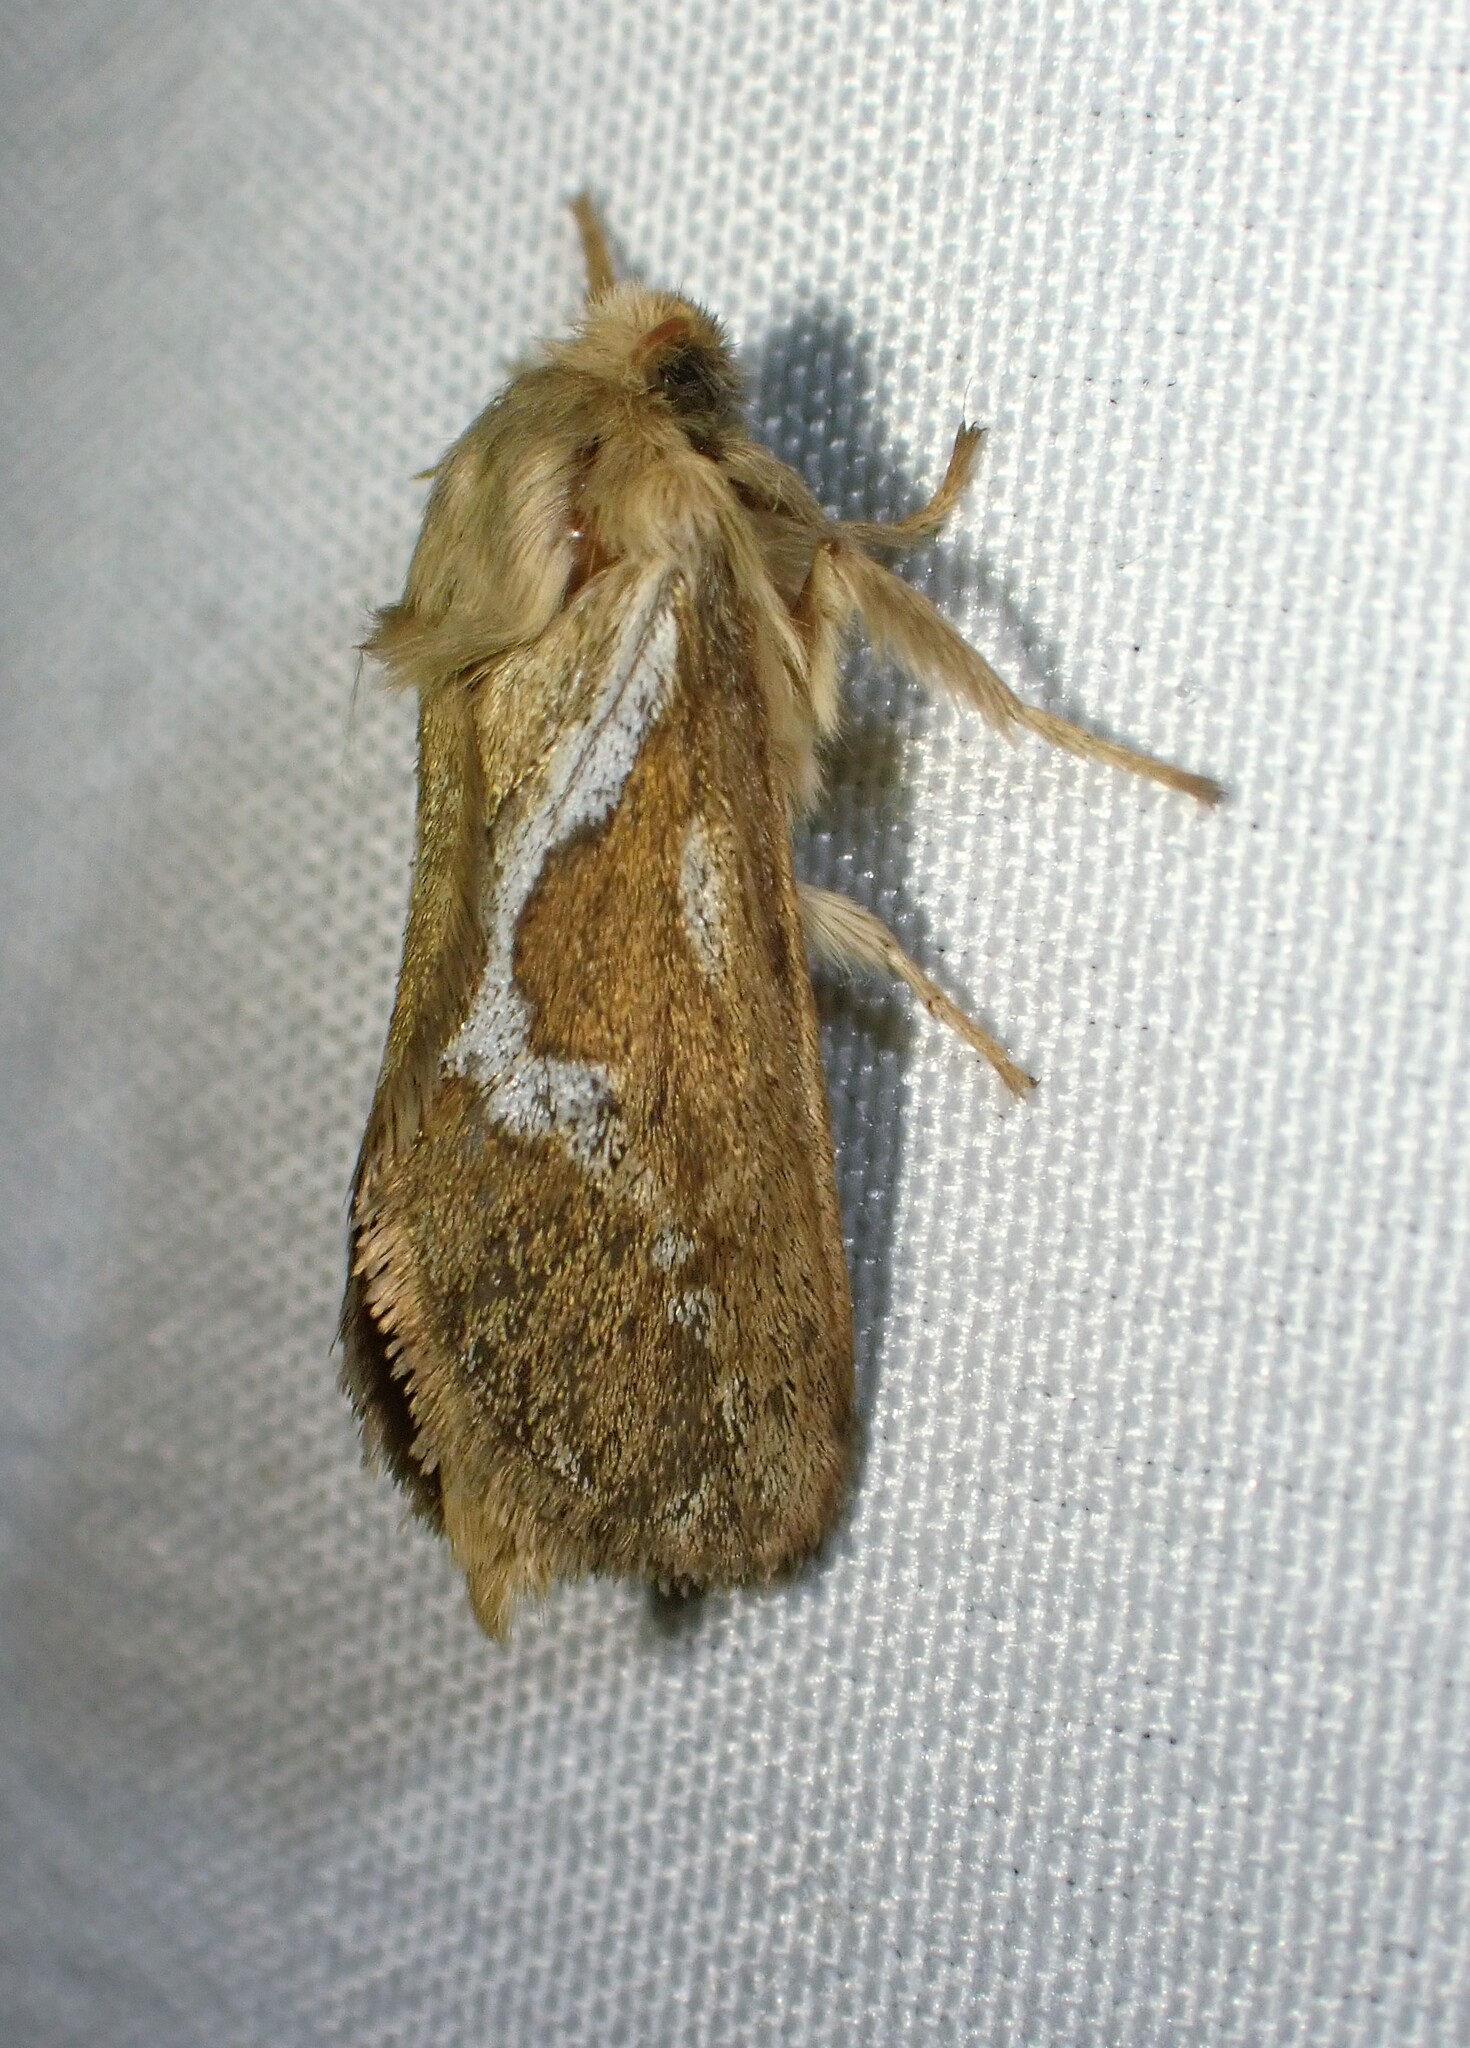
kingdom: Animalia
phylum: Arthropoda
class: Insecta
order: Lepidoptera
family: Hepialidae
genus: Korscheltellus
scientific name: Korscheltellus lupulina
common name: Common swift
